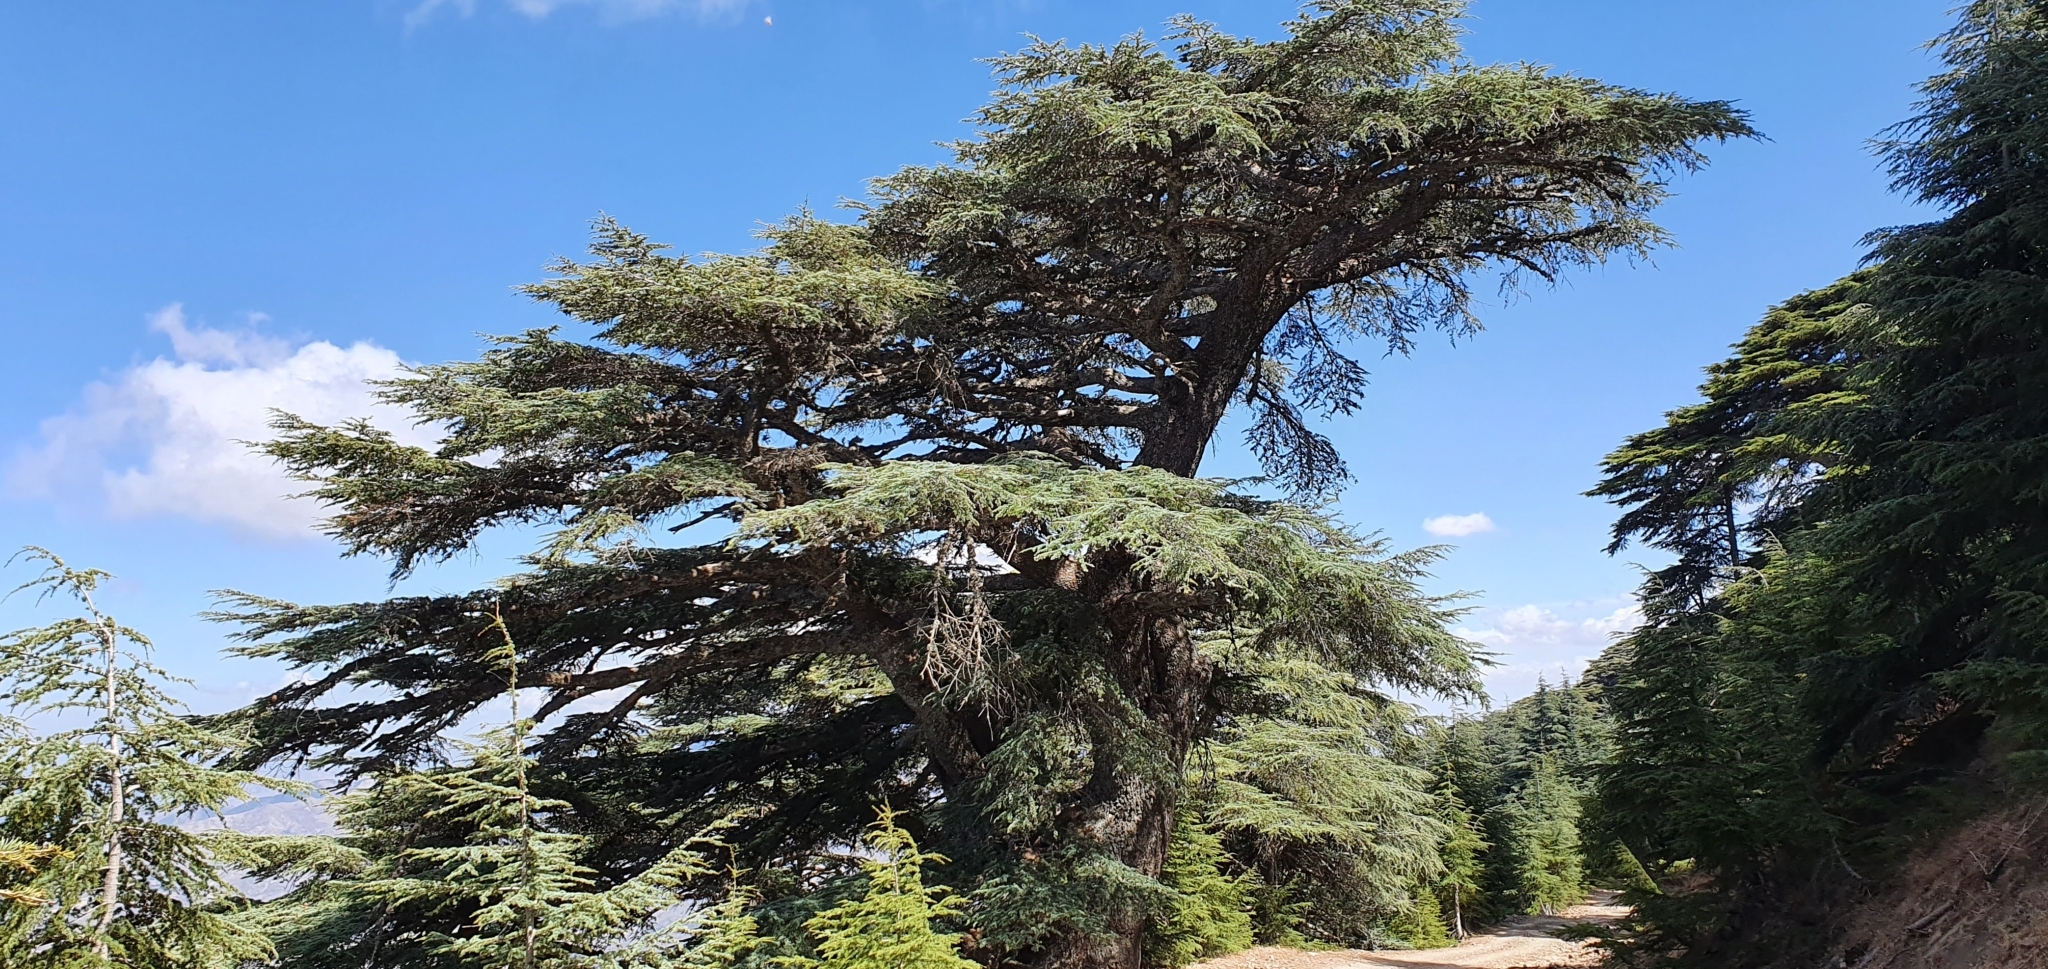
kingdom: Plantae
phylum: Tracheophyta
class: Pinopsida
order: Pinales
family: Pinaceae
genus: Cedrus
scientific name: Cedrus atlantica
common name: Atlas cedar
